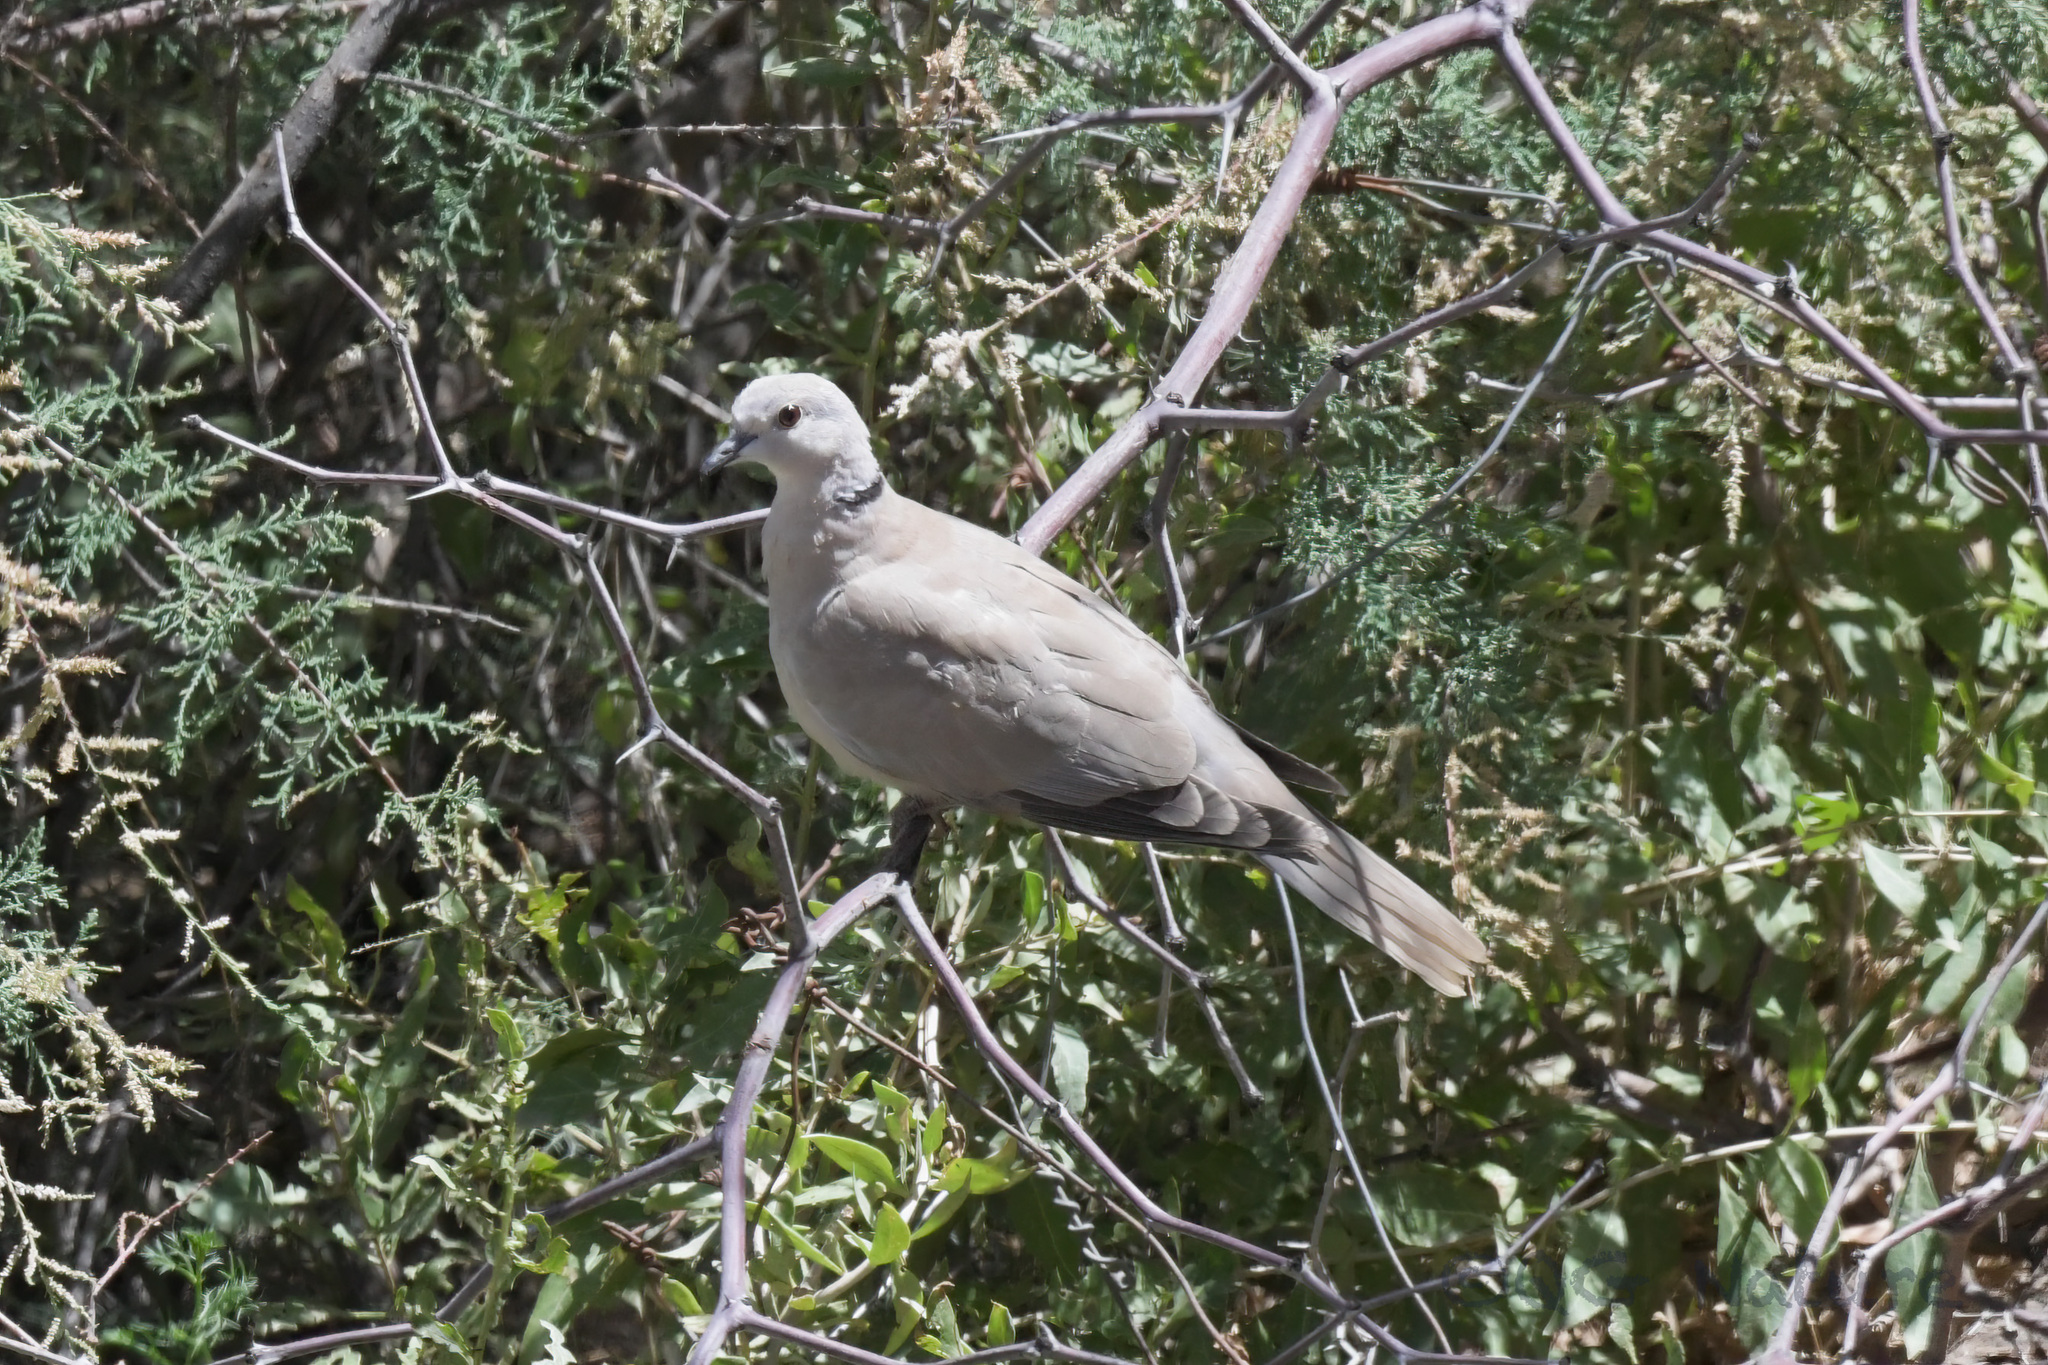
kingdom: Animalia
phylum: Chordata
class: Aves
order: Columbiformes
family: Columbidae
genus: Streptopelia
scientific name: Streptopelia decaocto
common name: Eurasian collared dove
